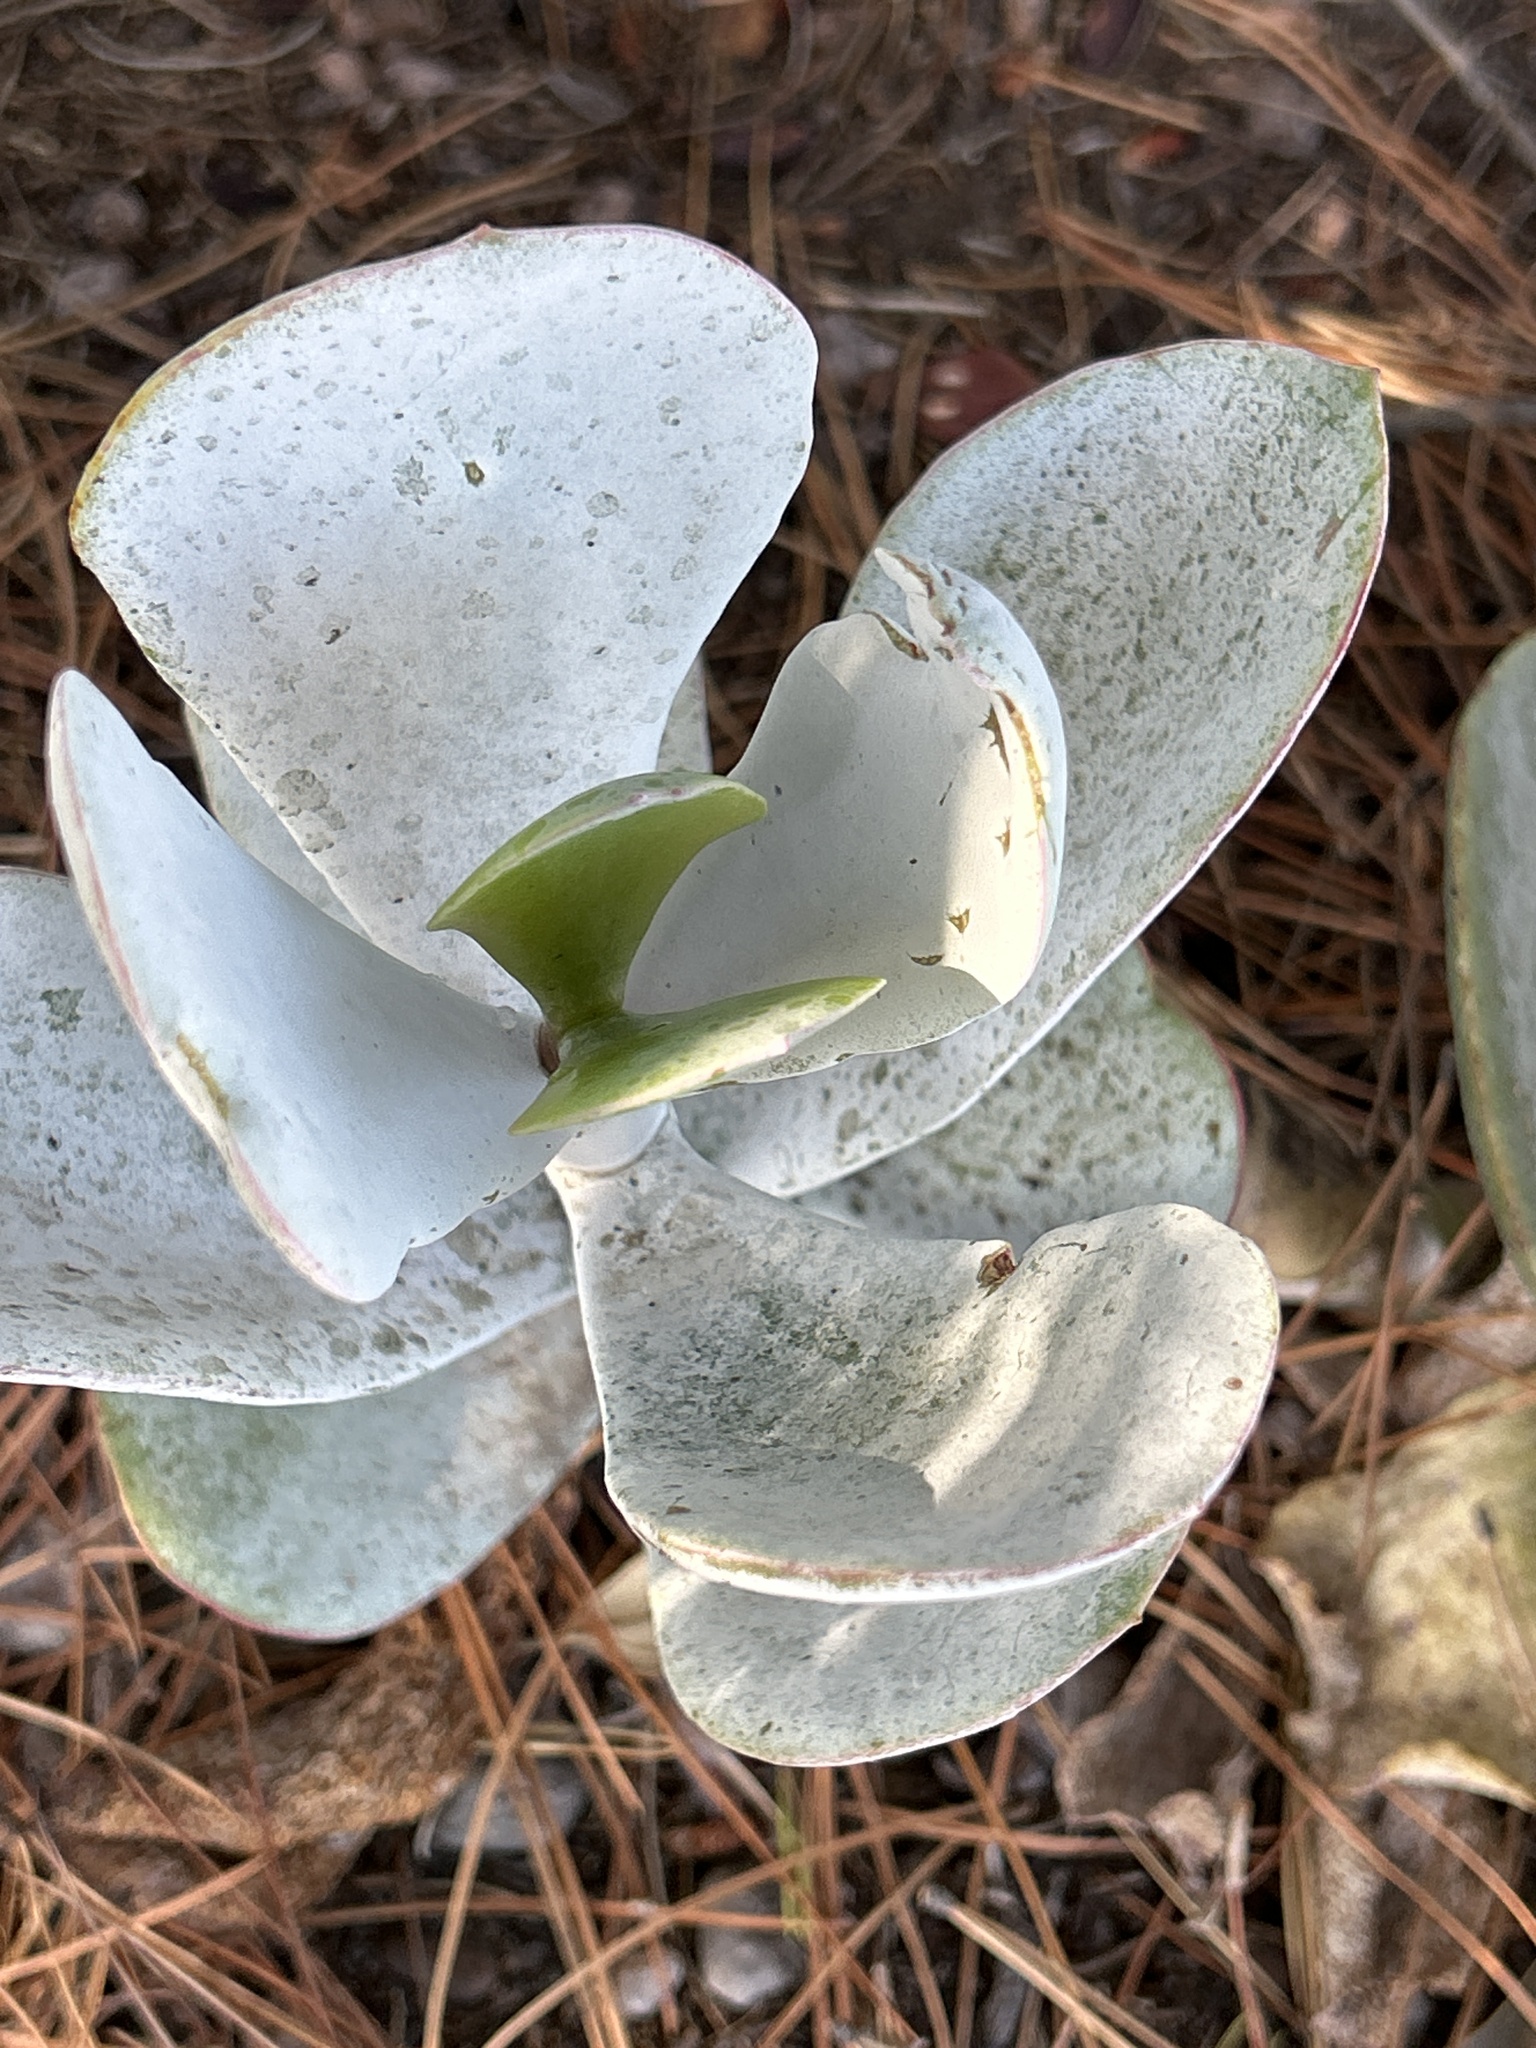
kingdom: Plantae
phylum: Tracheophyta
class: Magnoliopsida
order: Saxifragales
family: Crassulaceae
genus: Cotyledon
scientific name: Cotyledon orbiculata
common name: Pig's ear
